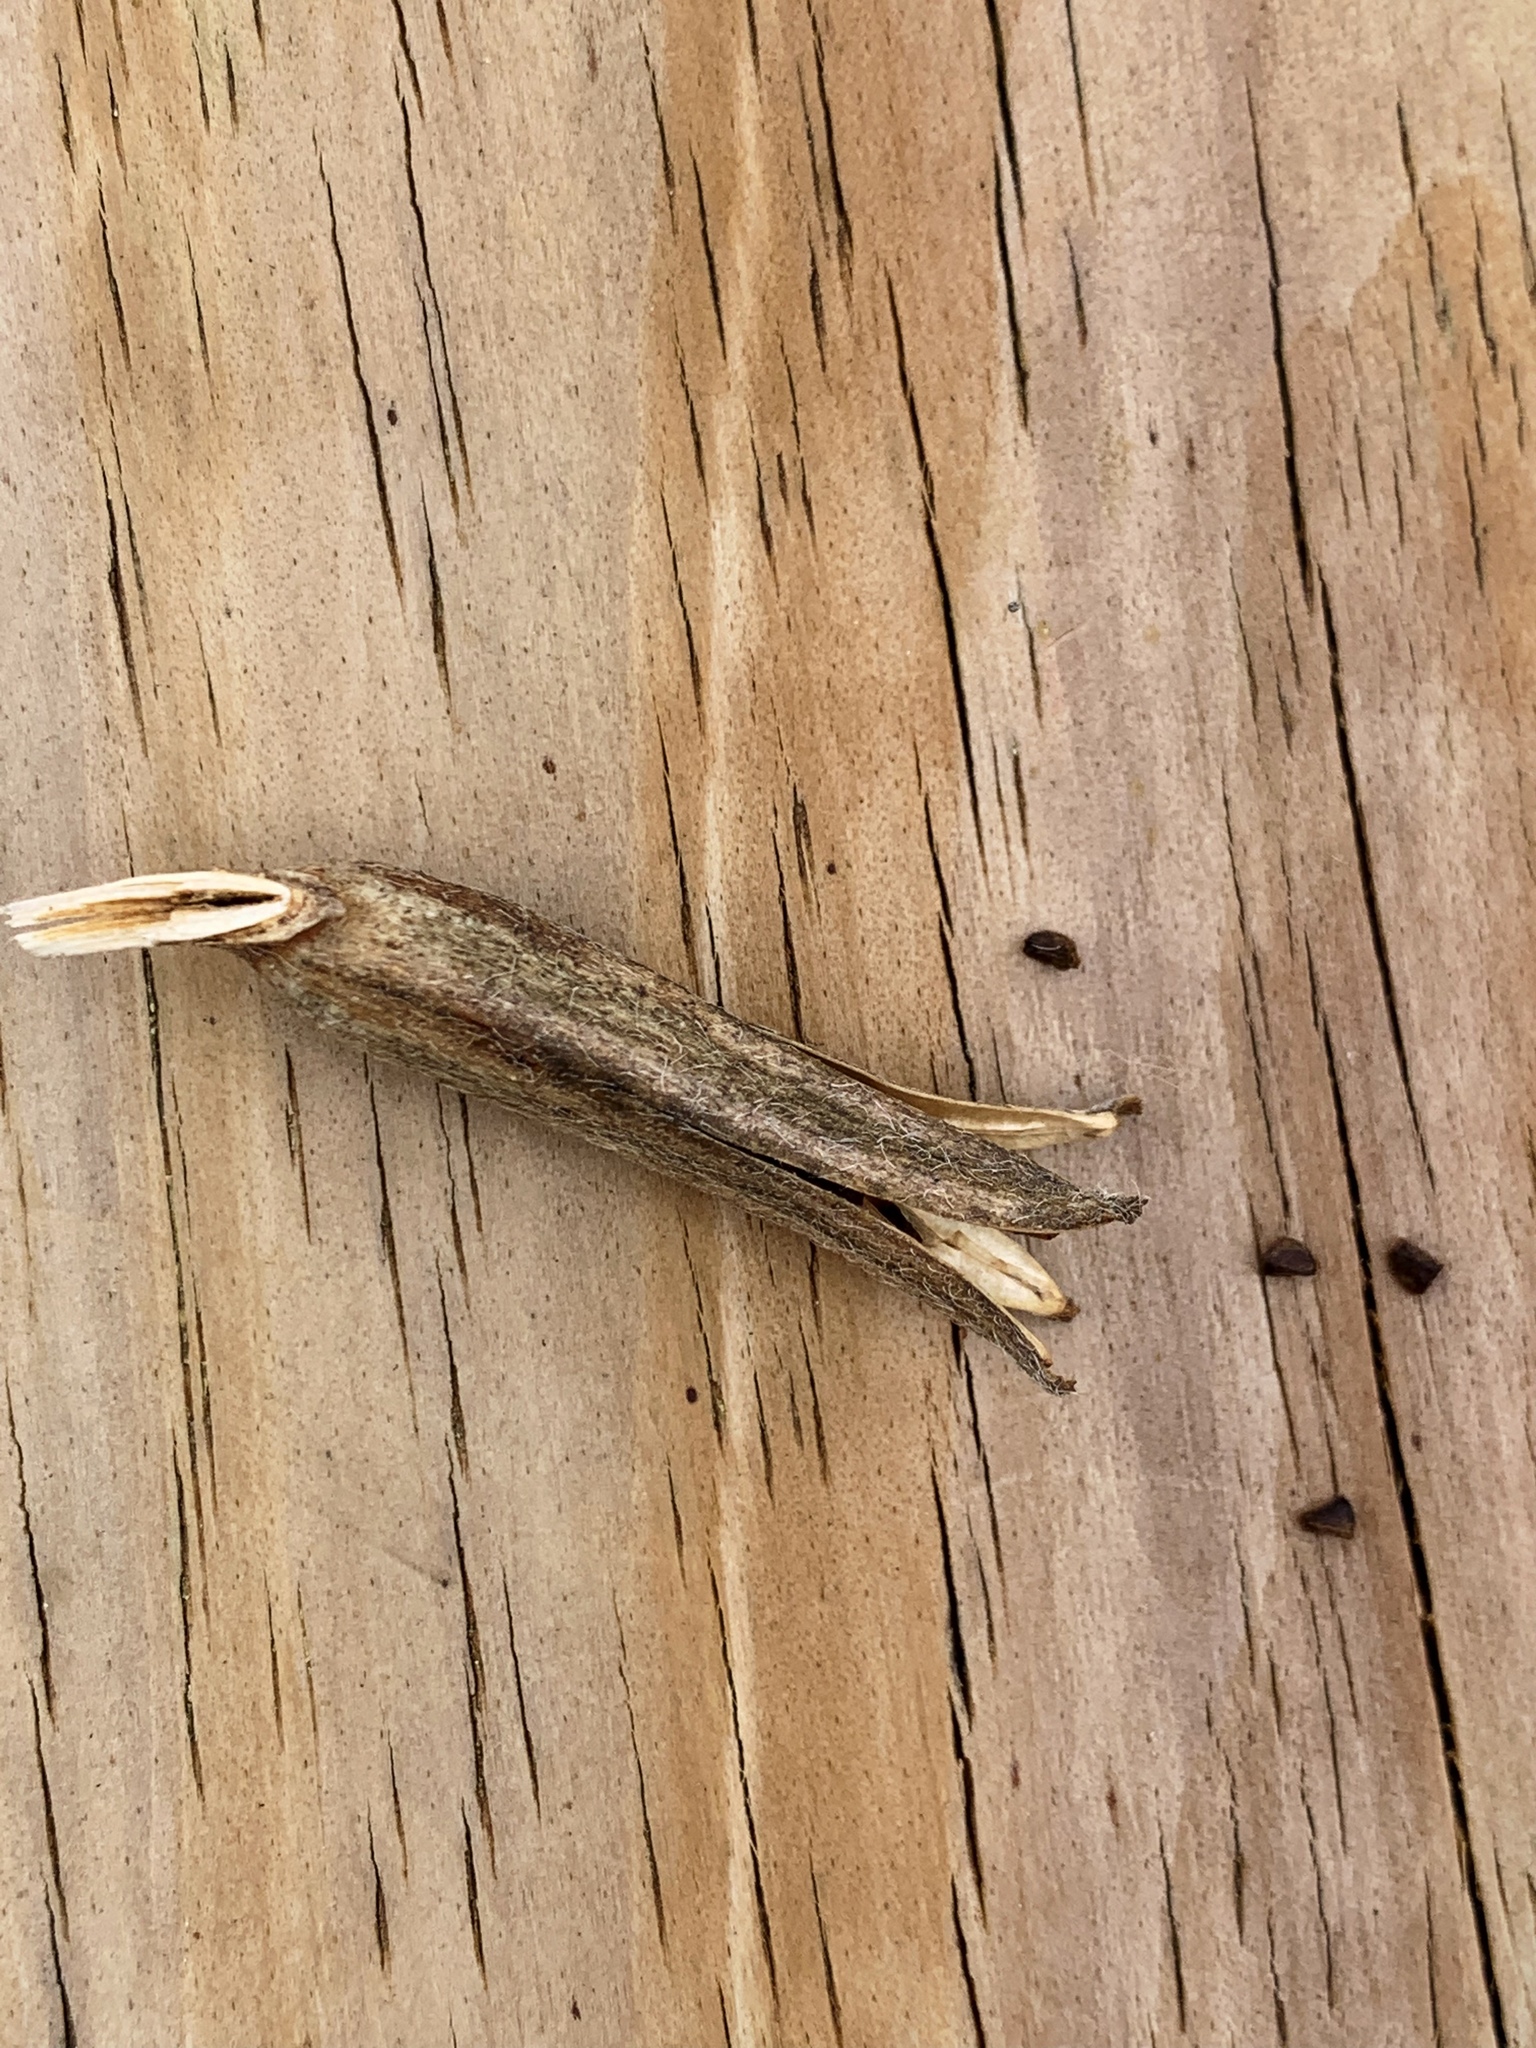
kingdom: Plantae
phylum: Tracheophyta
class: Magnoliopsida
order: Myrtales
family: Onagraceae
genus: Oenothera
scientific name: Oenothera biennis
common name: Common evening-primrose
